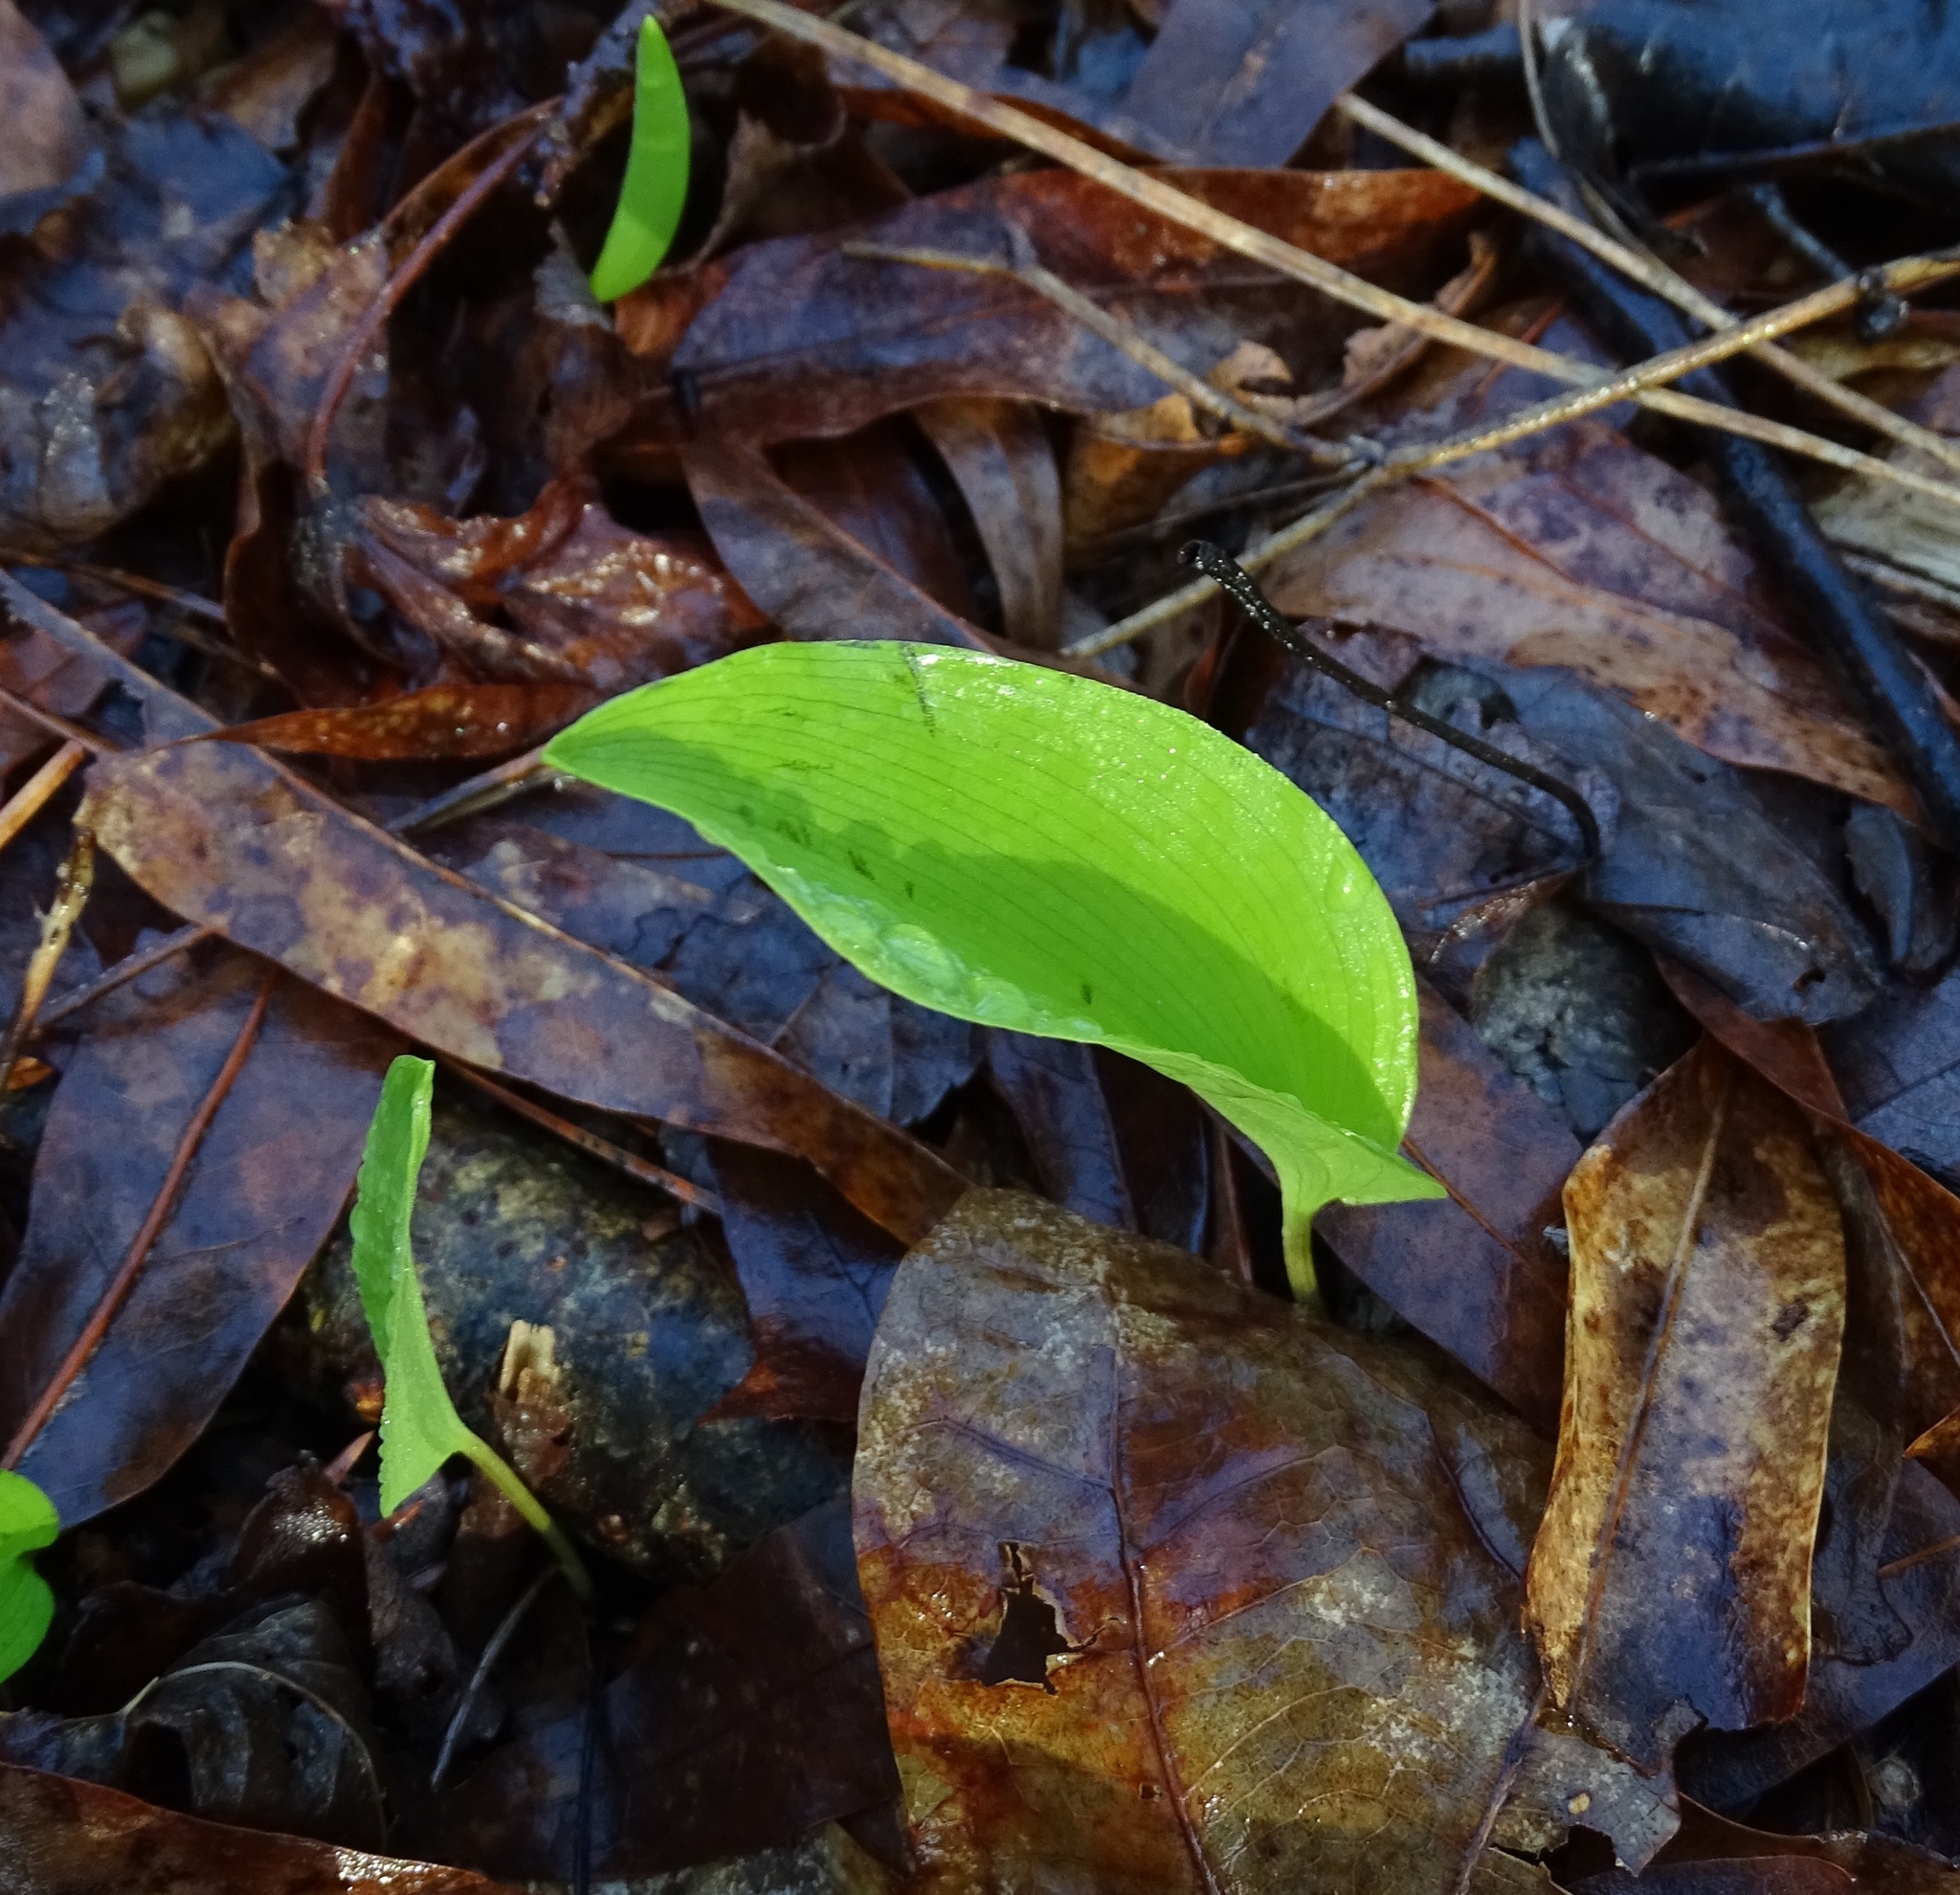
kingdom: Plantae
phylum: Tracheophyta
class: Liliopsida
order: Asparagales
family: Asparagaceae
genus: Maianthemum
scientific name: Maianthemum canadense
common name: False lily-of-the-valley
